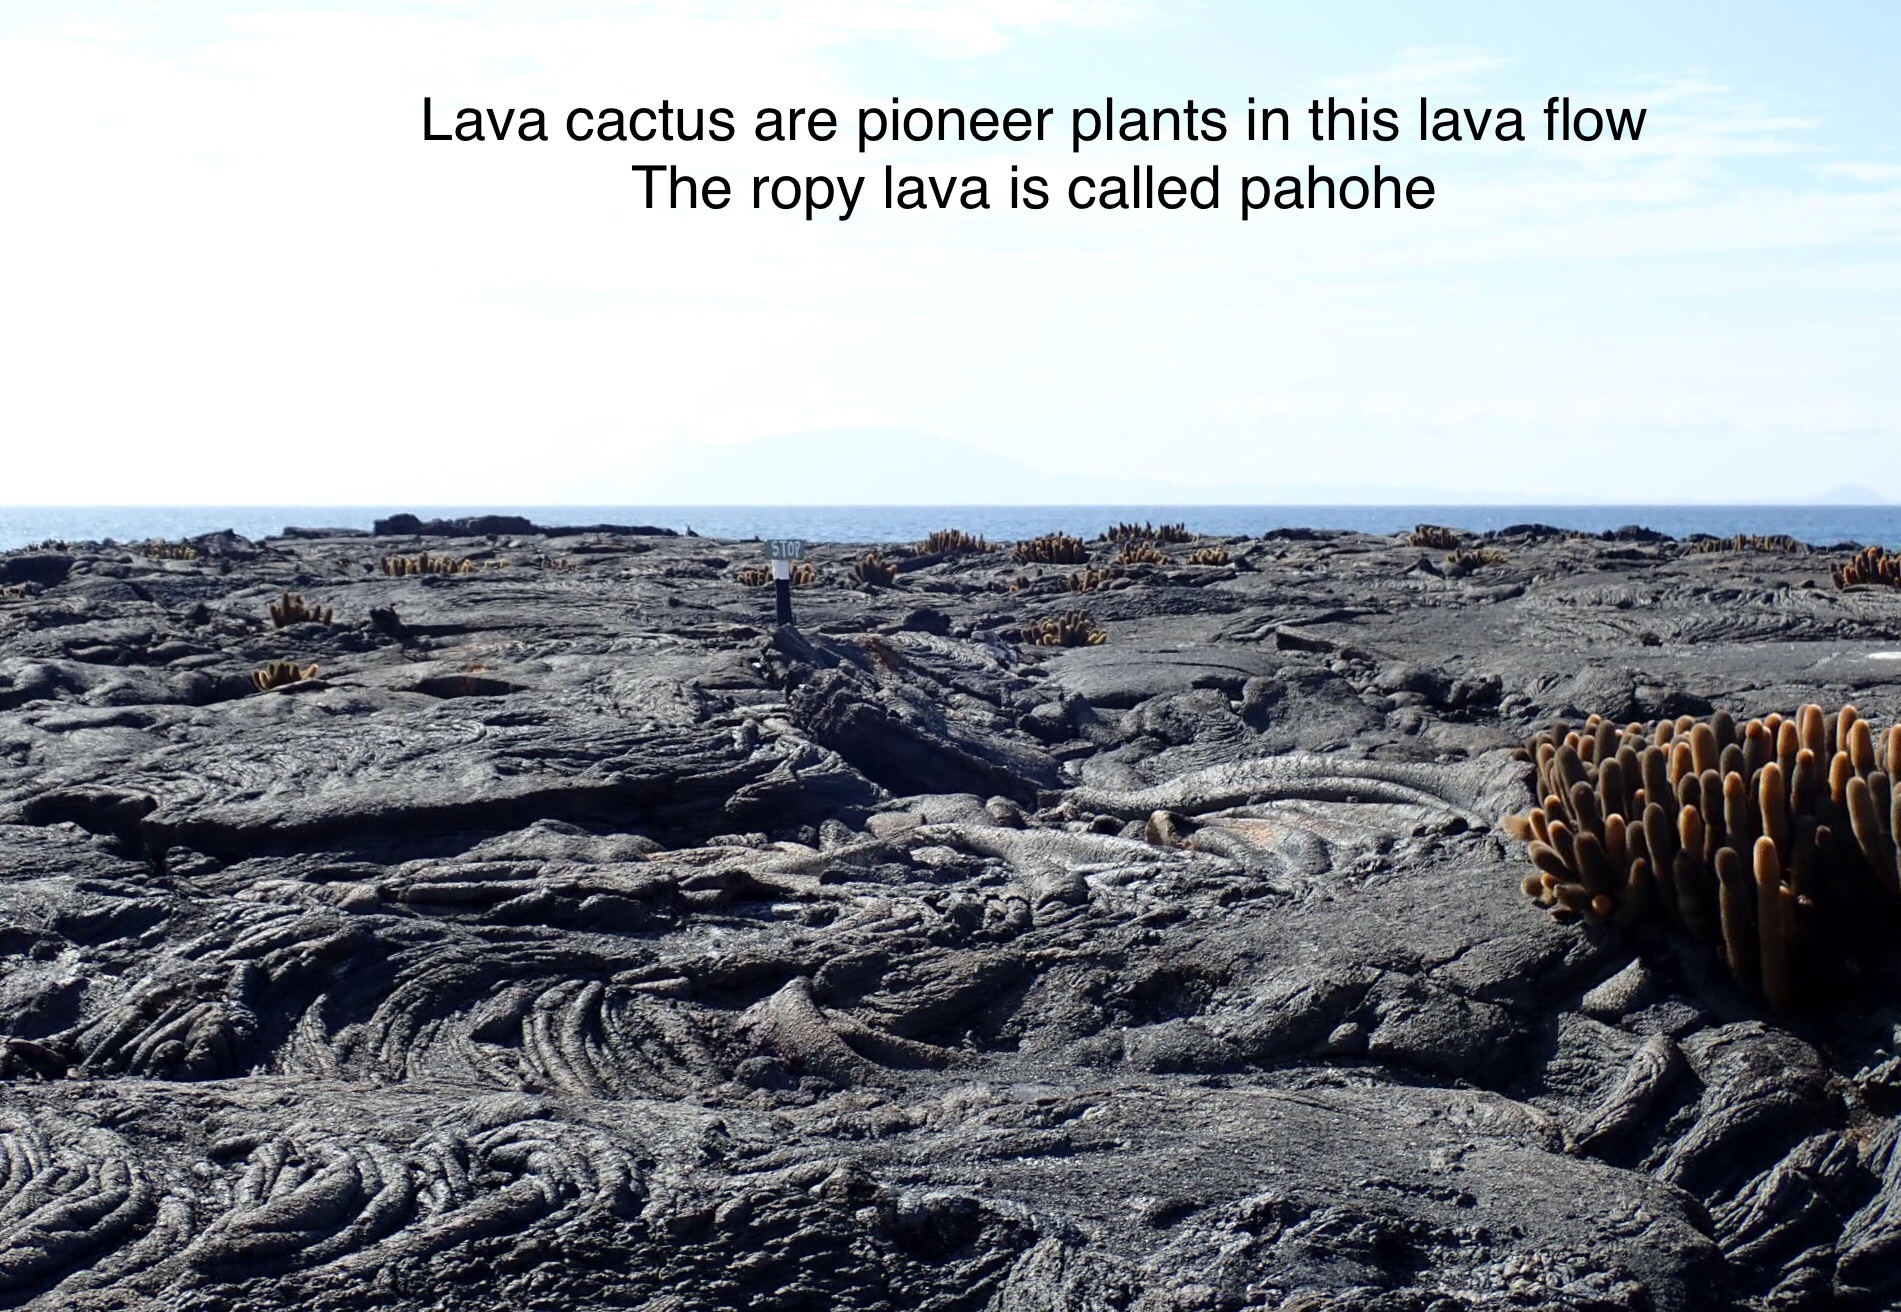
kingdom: Plantae
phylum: Tracheophyta
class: Magnoliopsida
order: Caryophyllales
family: Cactaceae
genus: Brachycereus
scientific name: Brachycereus nesioticus
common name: Lava cactus
